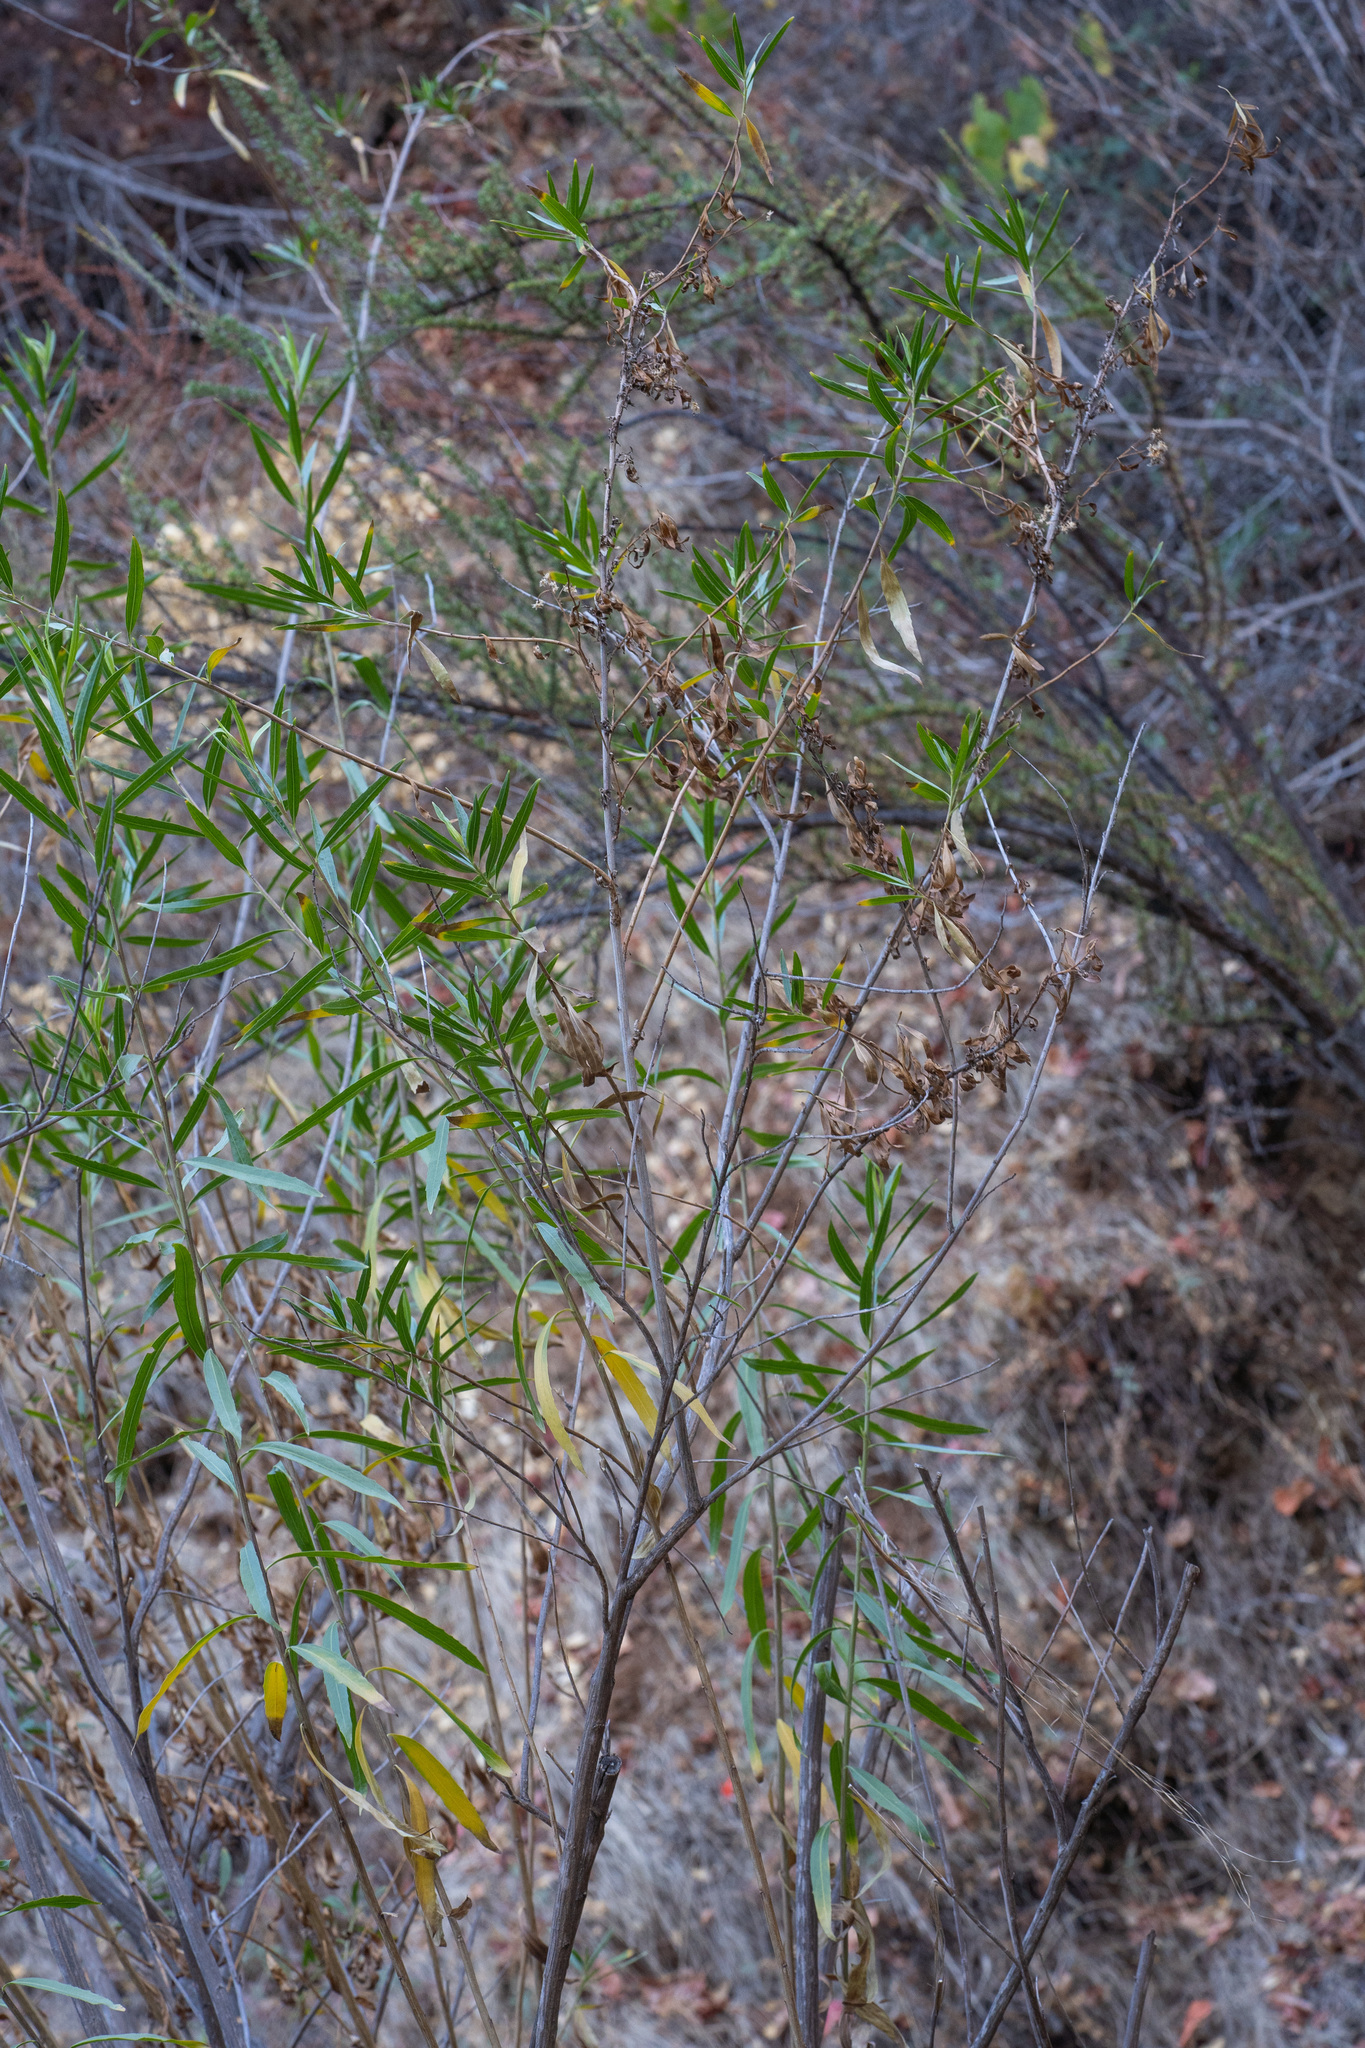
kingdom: Plantae
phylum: Tracheophyta
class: Magnoliopsida
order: Asterales
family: Asteraceae
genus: Baccharis
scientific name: Baccharis salicifolia
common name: Sticky baccharis
